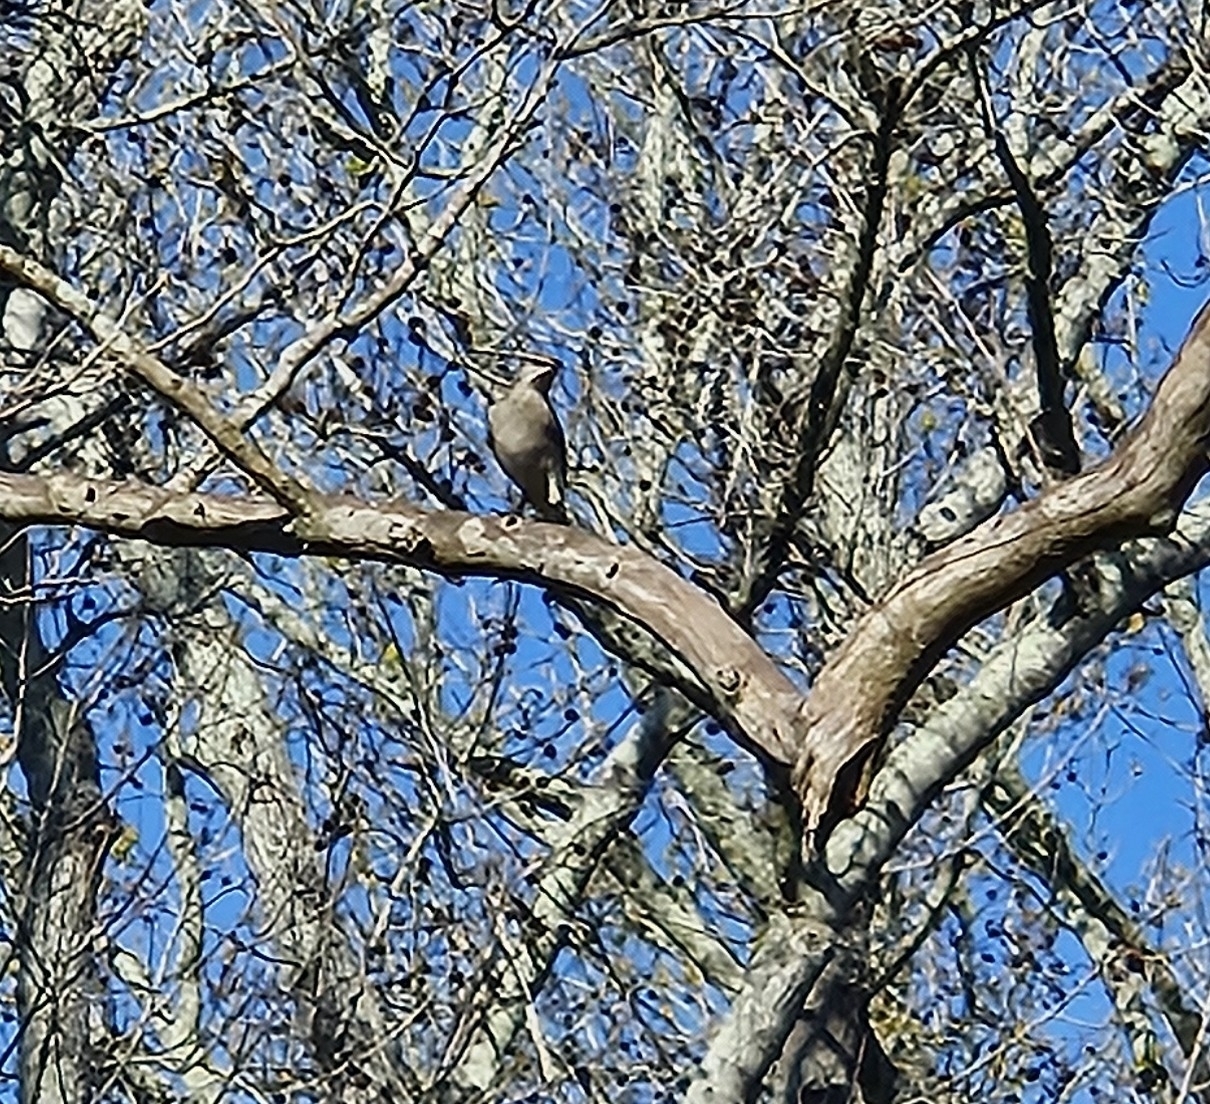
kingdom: Animalia
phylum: Chordata
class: Aves
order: Passeriformes
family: Mimidae
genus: Mimus
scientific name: Mimus polyglottos
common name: Northern mockingbird
